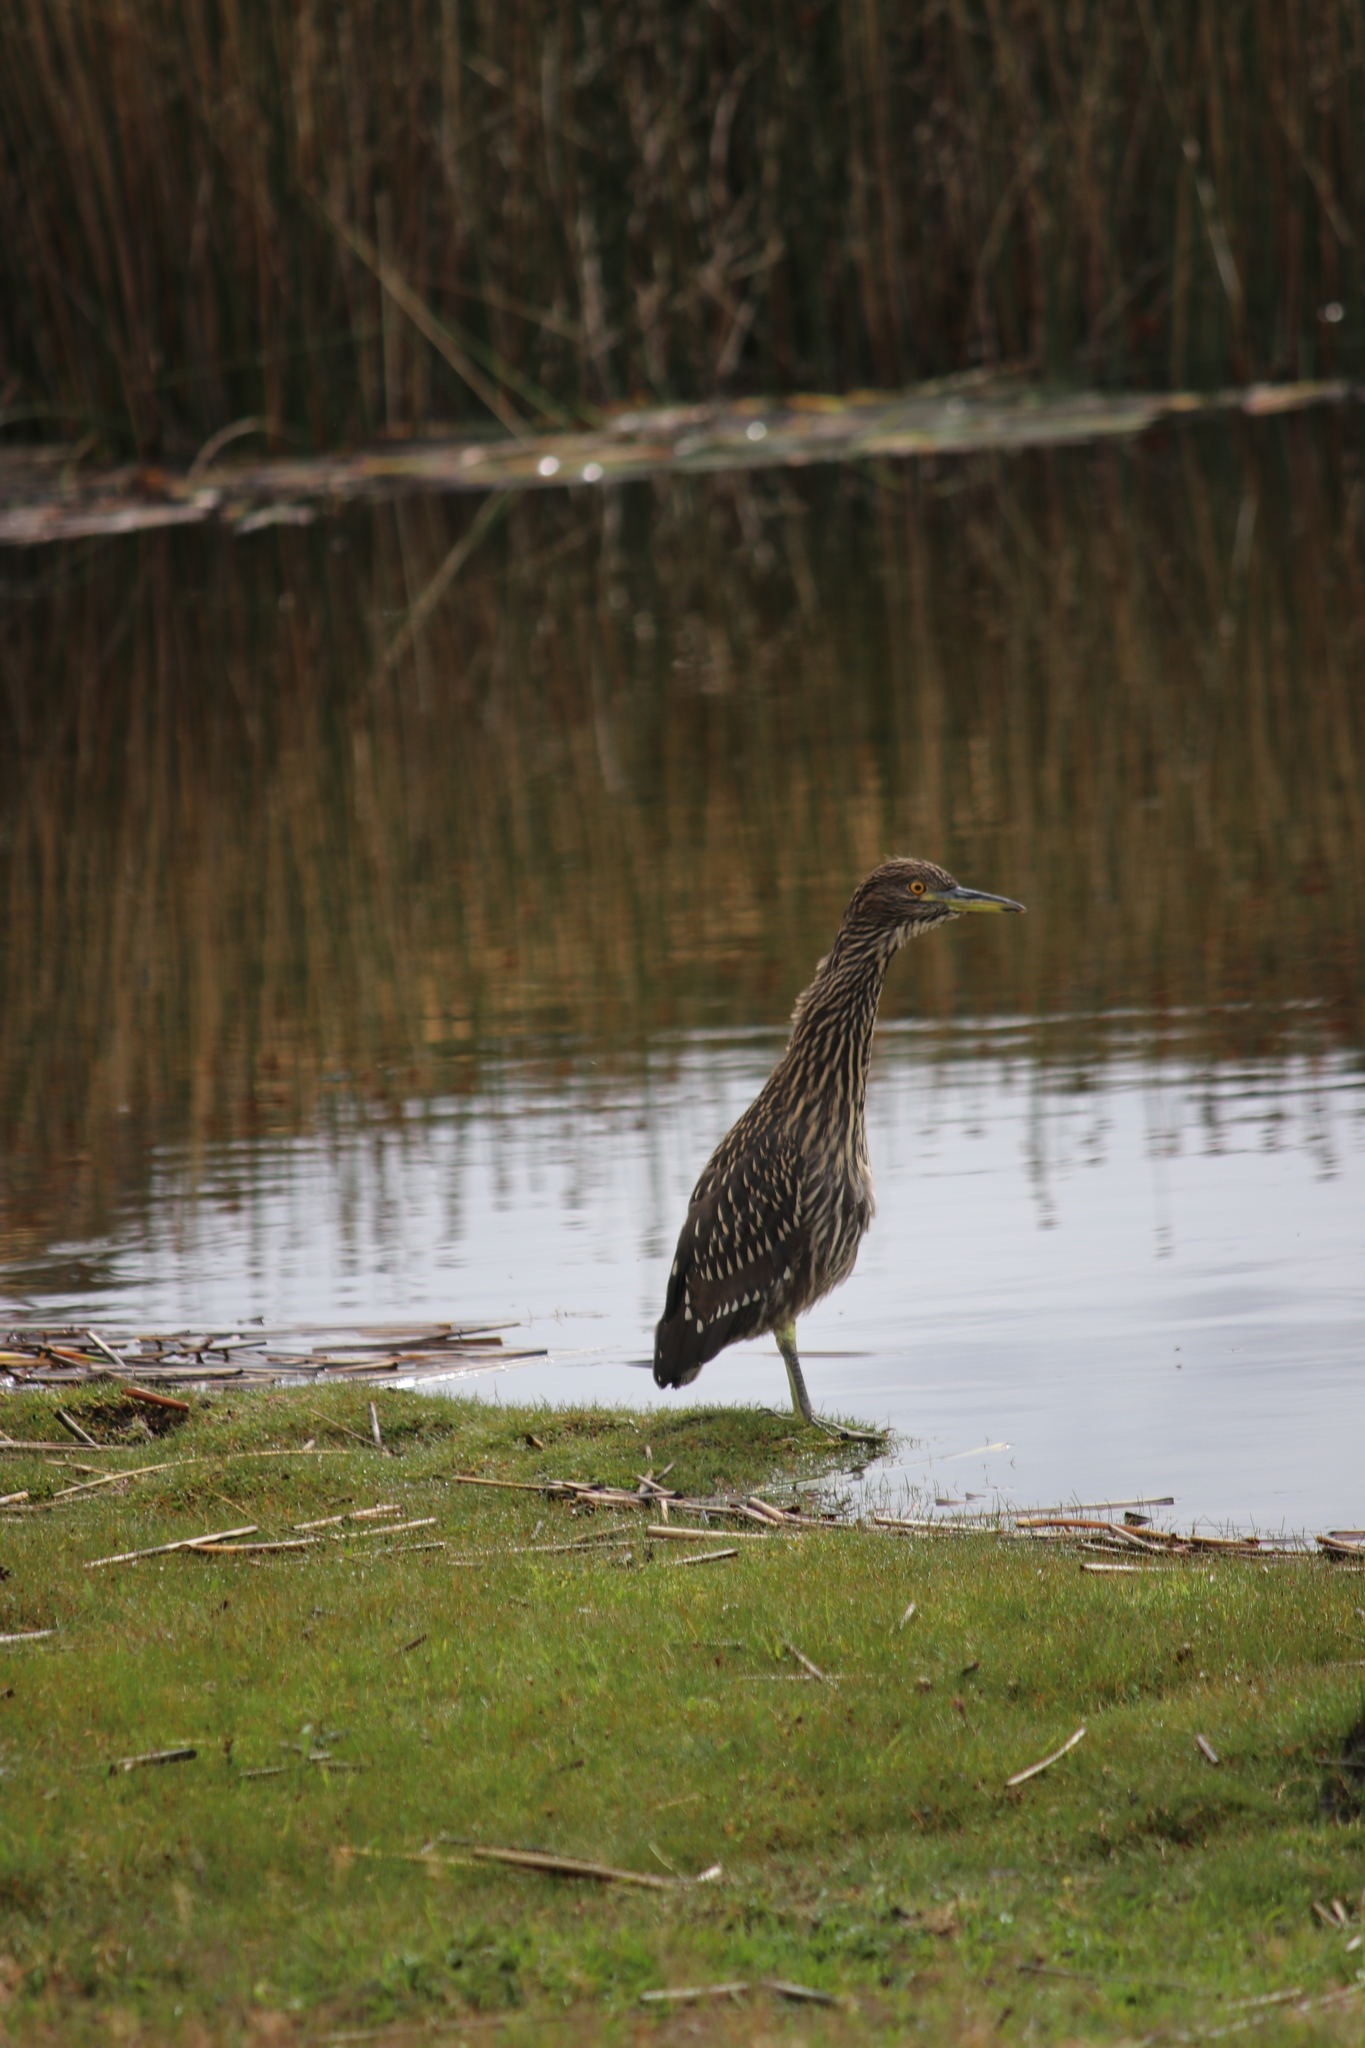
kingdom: Animalia
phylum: Chordata
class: Aves
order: Pelecaniformes
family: Ardeidae
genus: Nycticorax
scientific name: Nycticorax nycticorax
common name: Black-crowned night heron
